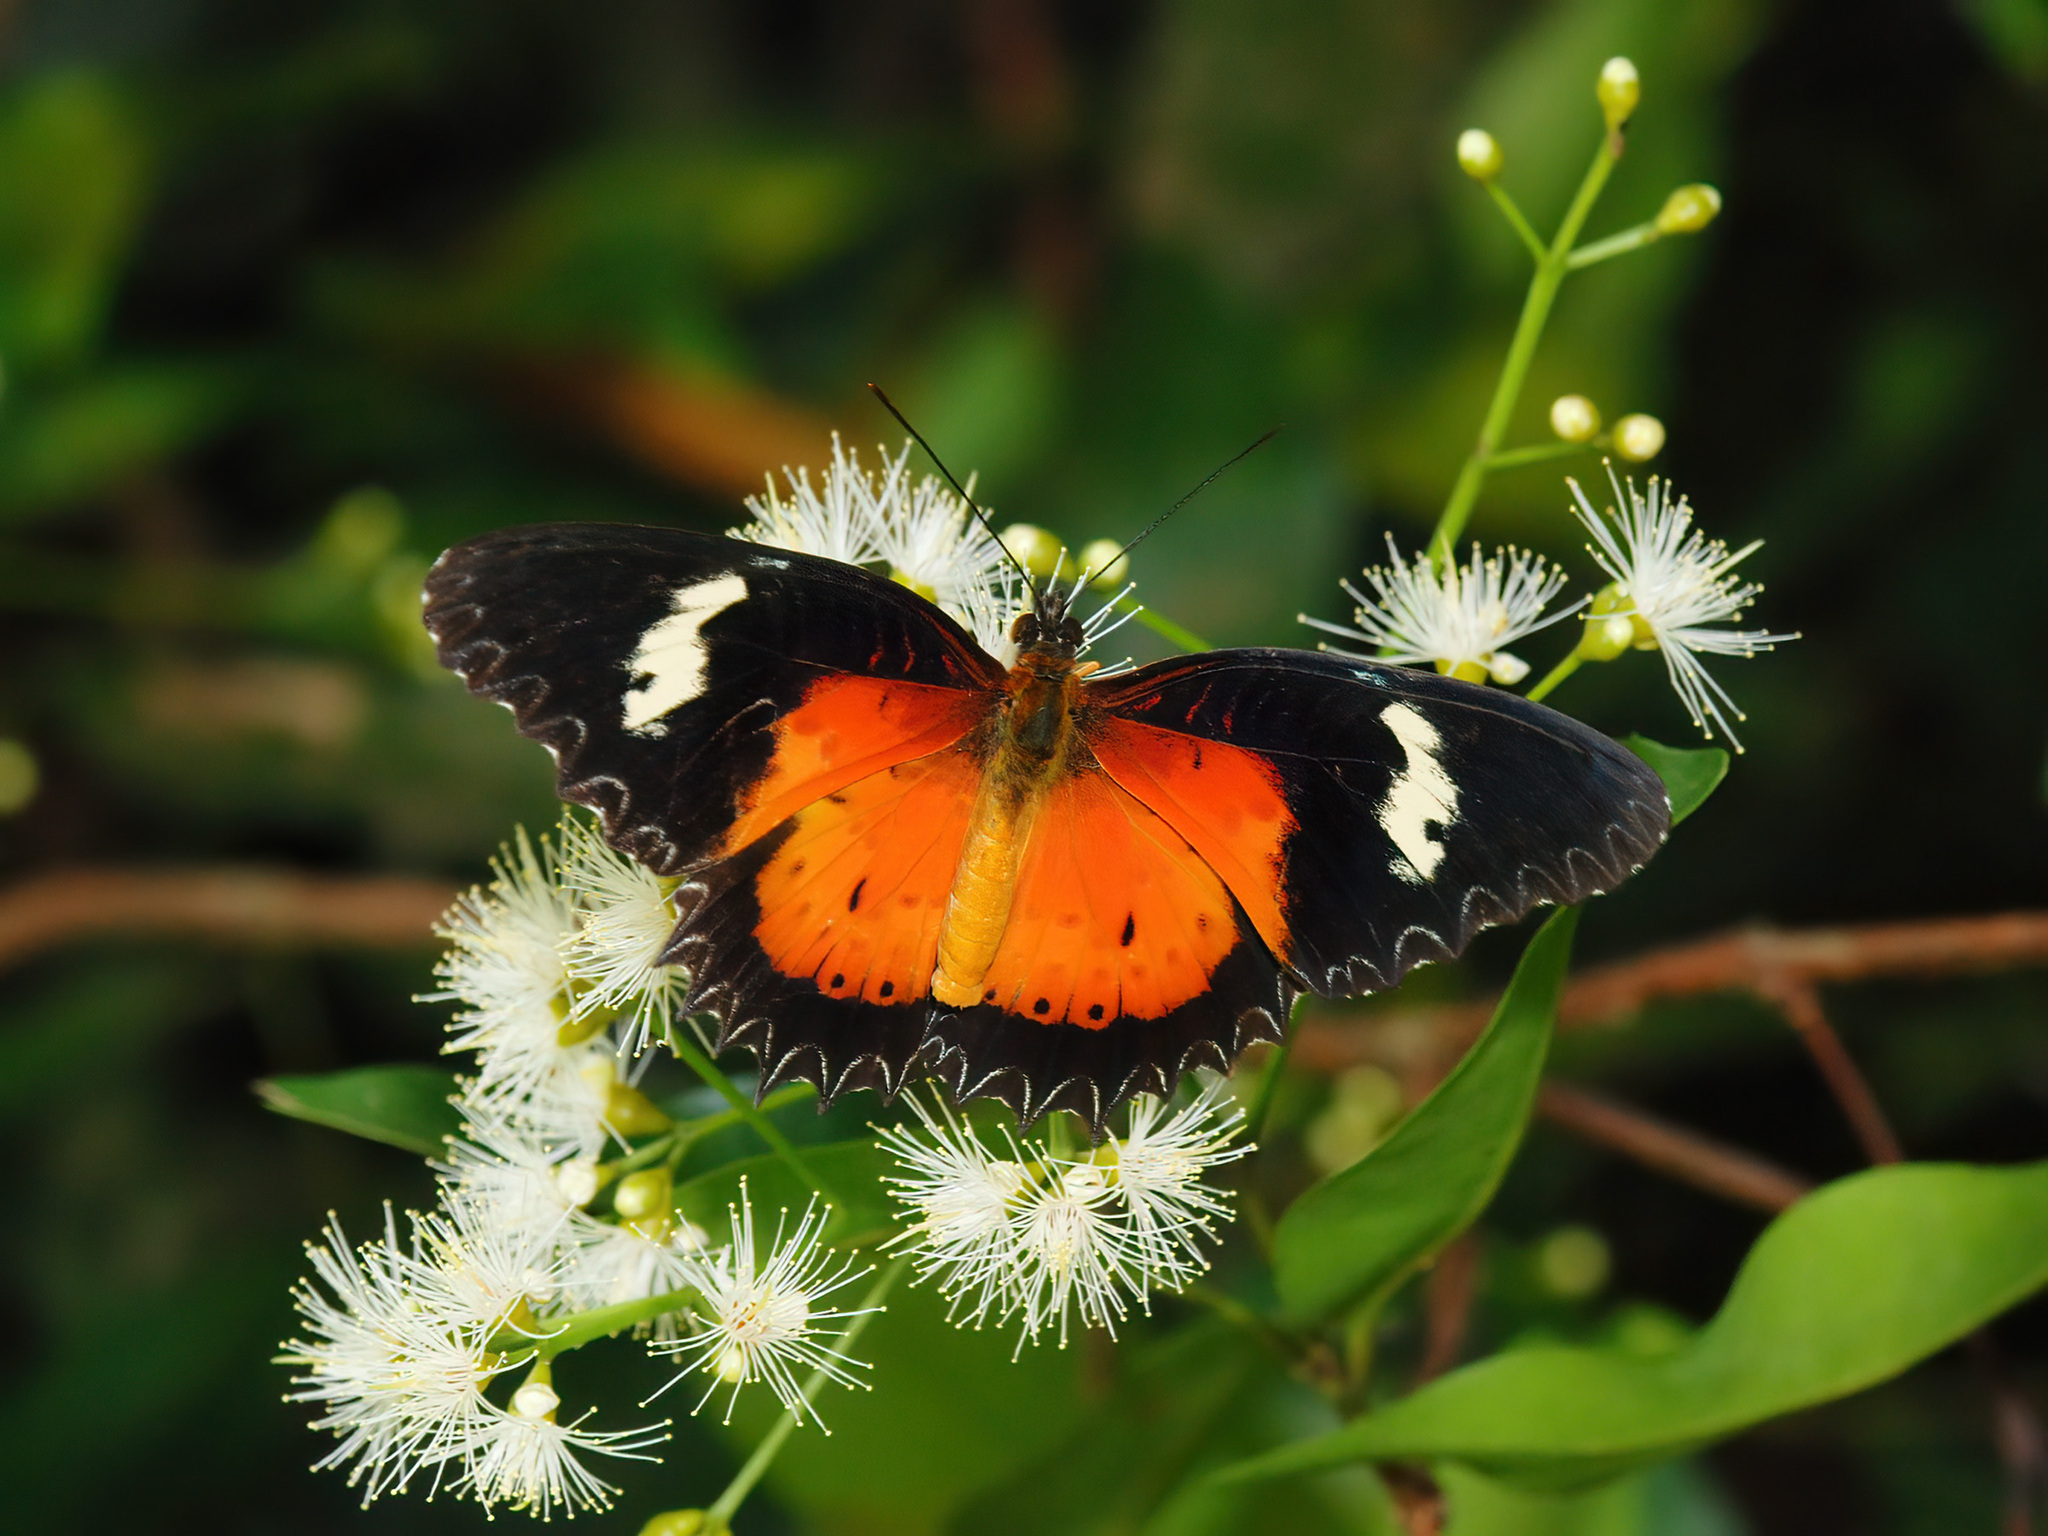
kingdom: Animalia
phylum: Arthropoda
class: Insecta
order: Lepidoptera
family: Nymphalidae
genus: Cethosia
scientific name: Cethosia hypsea
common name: Malayan lacewing butterfly
